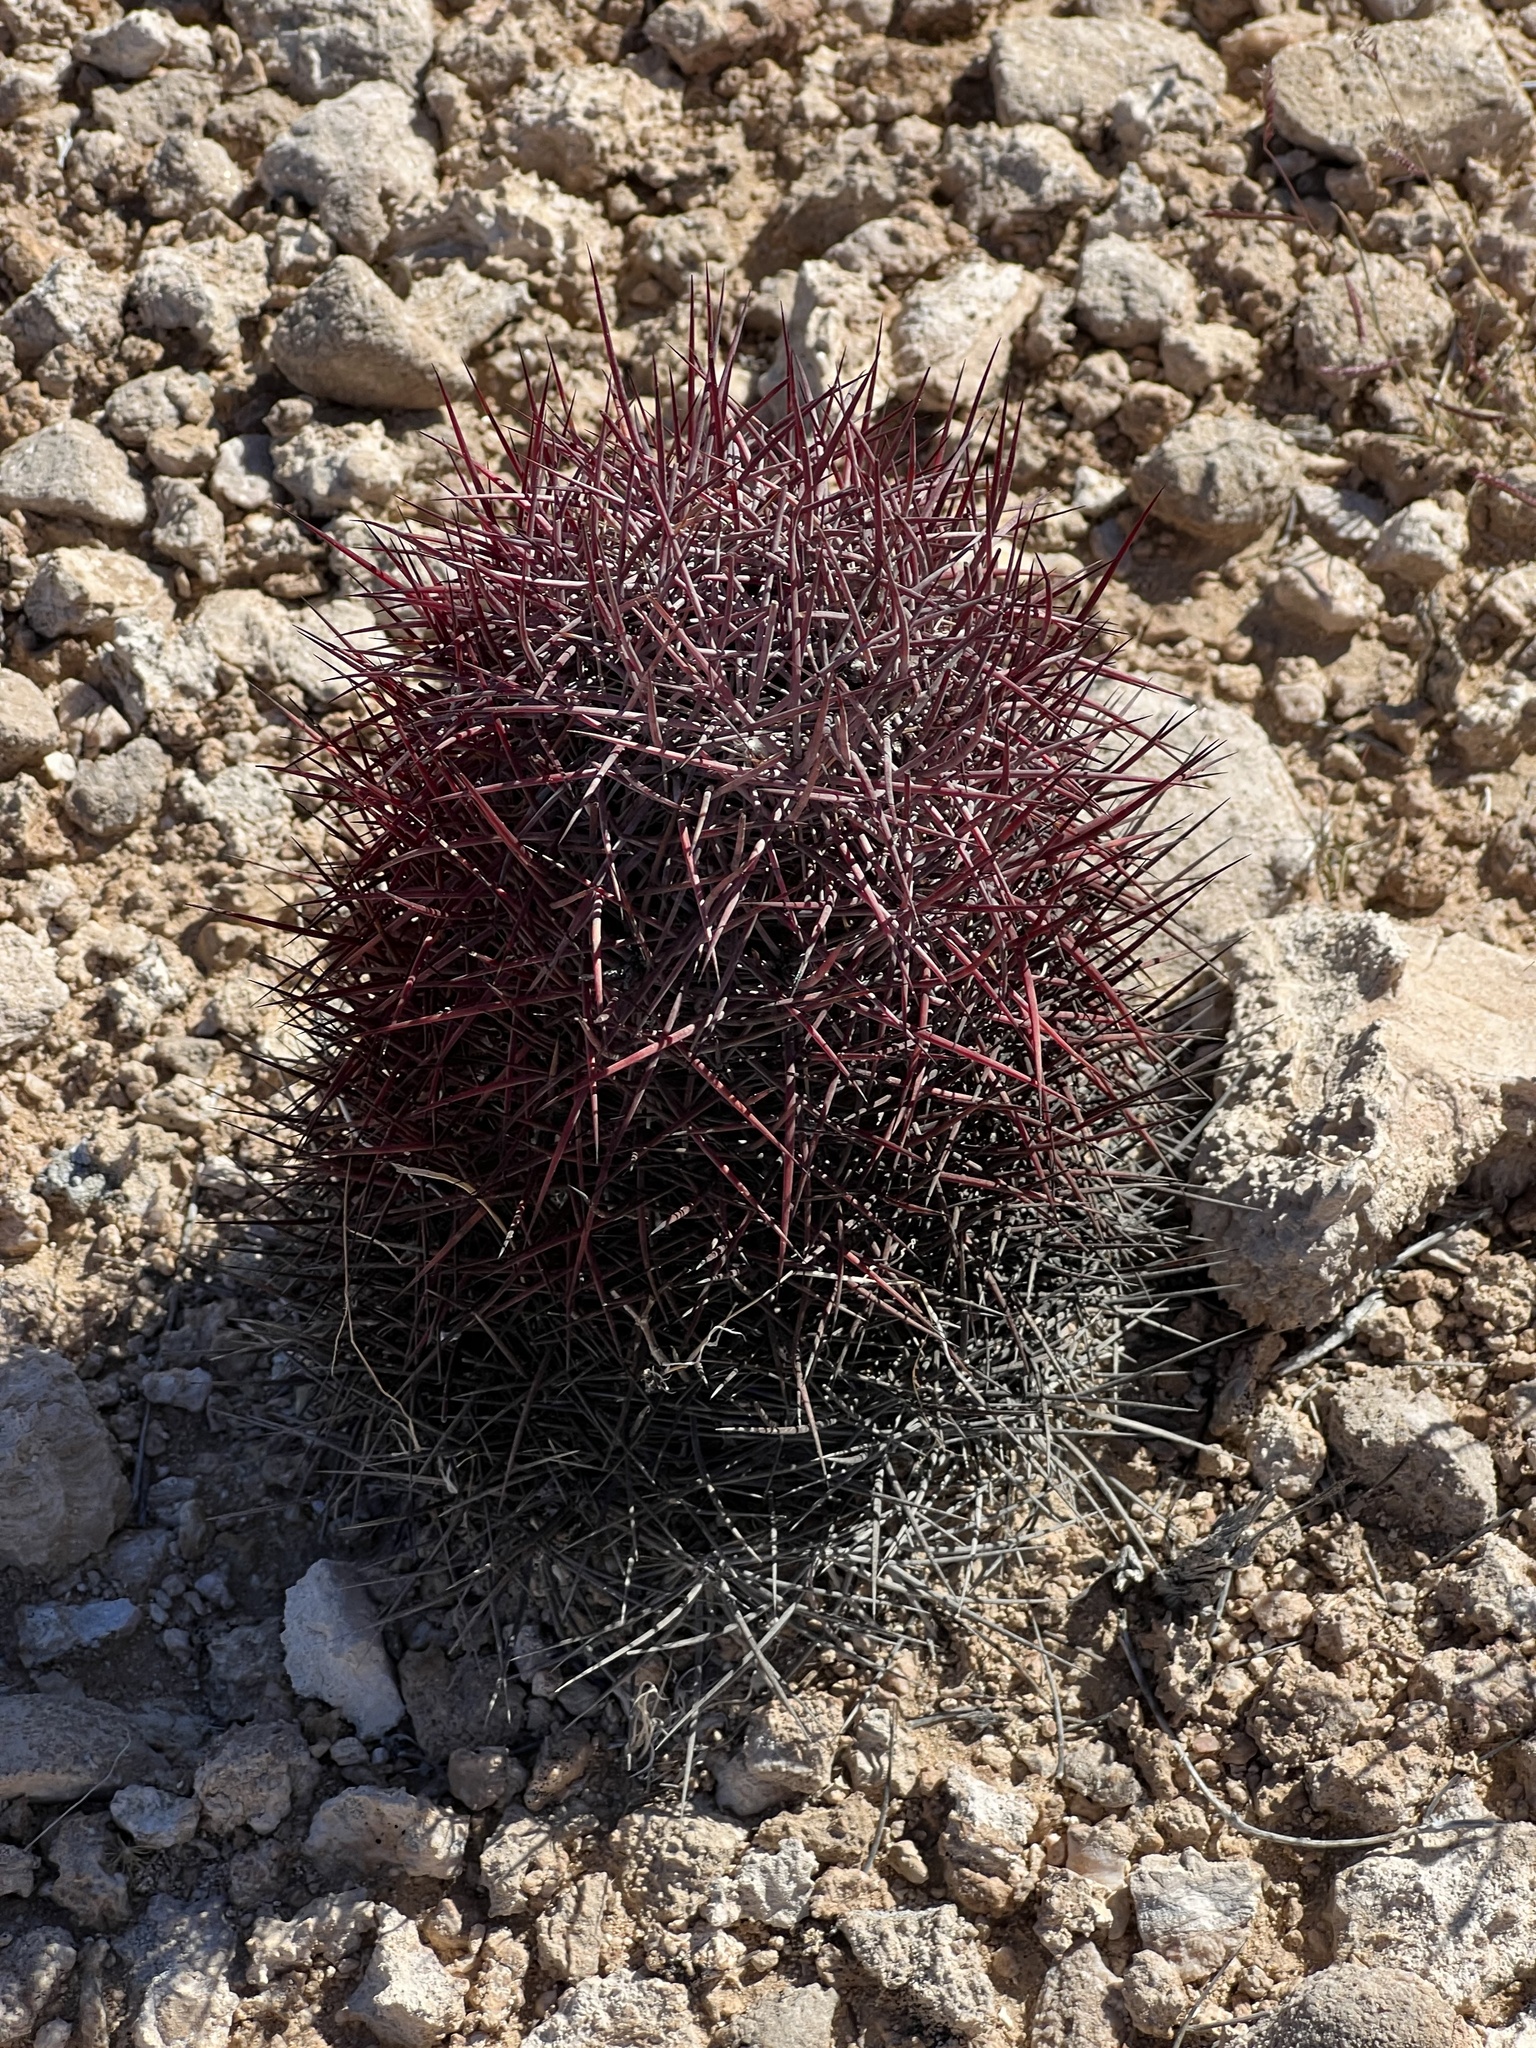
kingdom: Plantae
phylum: Tracheophyta
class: Magnoliopsida
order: Caryophyllales
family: Cactaceae
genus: Sclerocactus
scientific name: Sclerocactus johnsonii
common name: Eight-spine fishhook cactus
